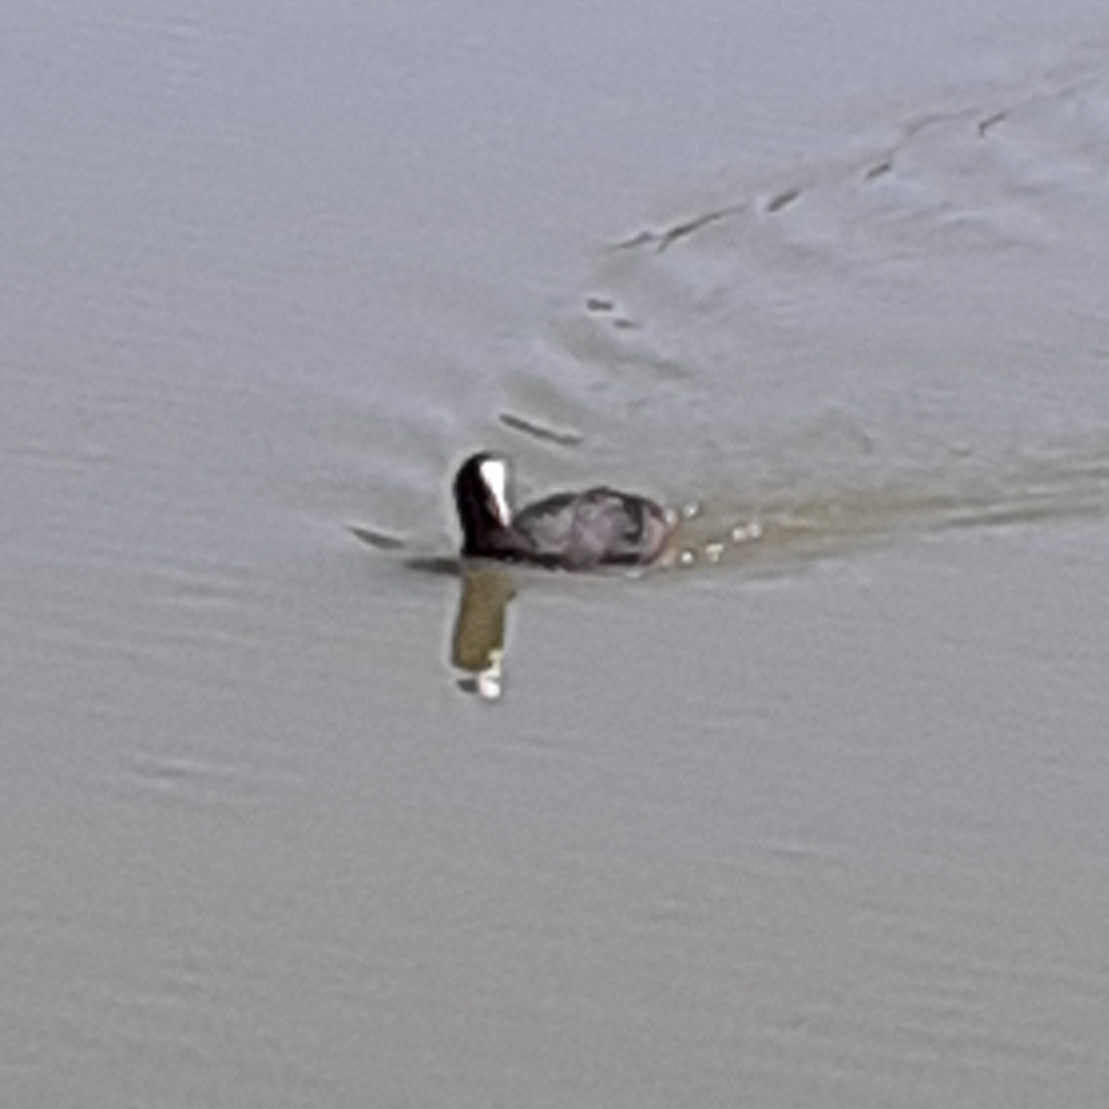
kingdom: Animalia
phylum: Chordata
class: Aves
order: Gruiformes
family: Rallidae
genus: Fulica
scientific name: Fulica atra
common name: Eurasian coot
